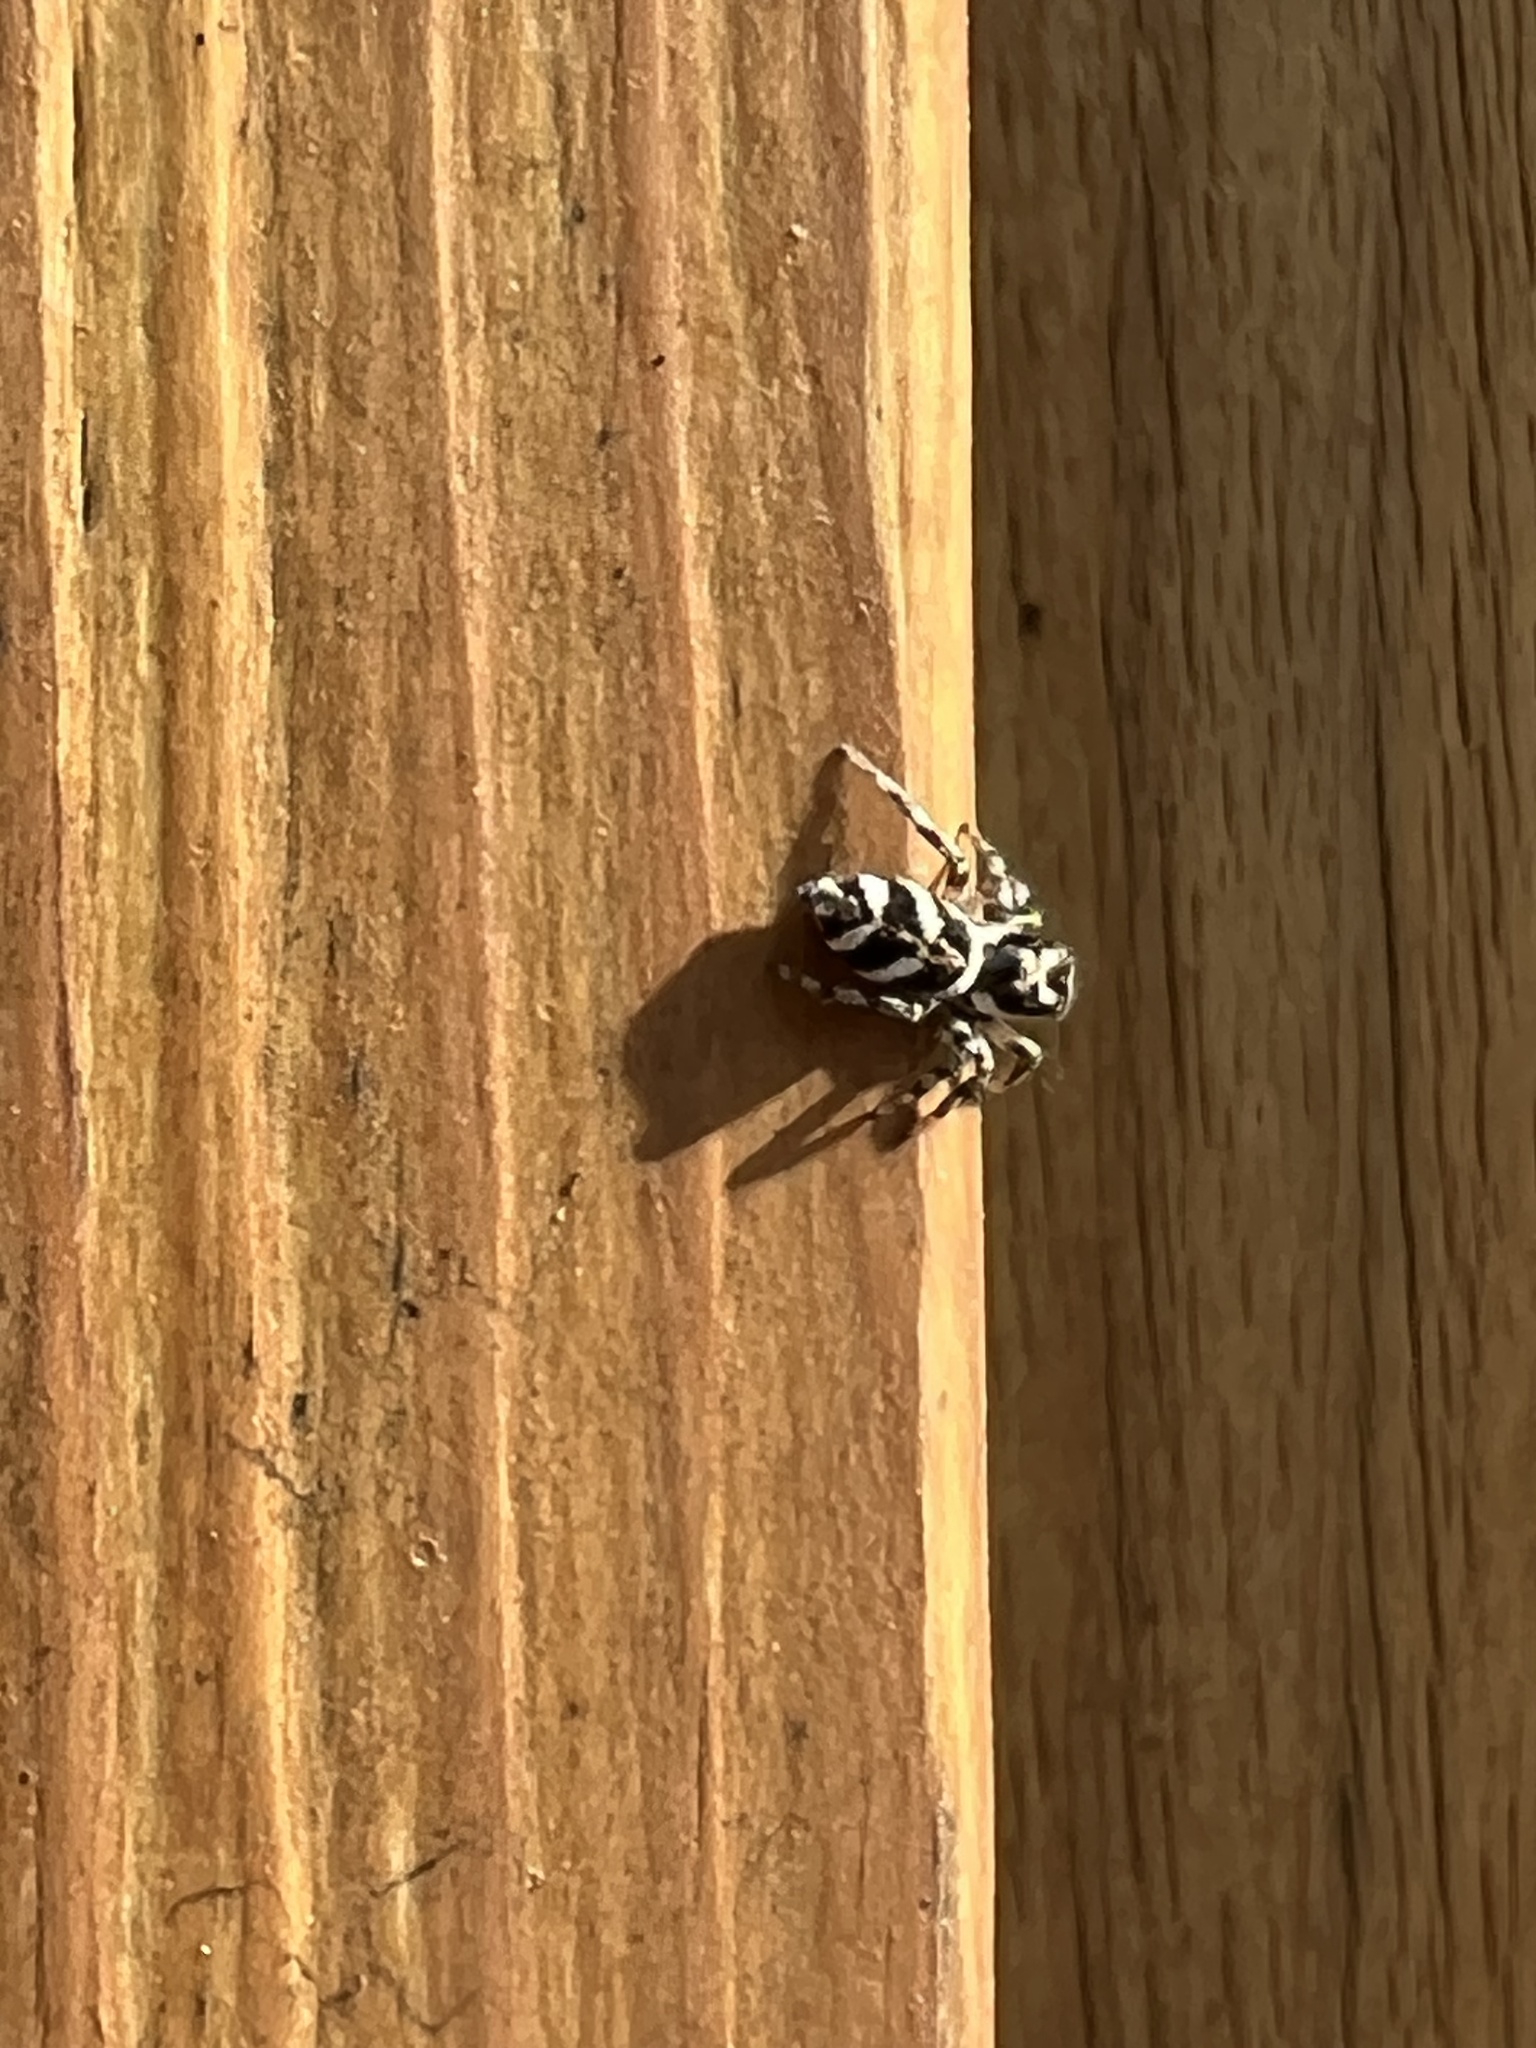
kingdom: Animalia
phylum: Arthropoda
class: Arachnida
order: Araneae
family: Salticidae
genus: Salticus
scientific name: Salticus scenicus
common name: Zebra jumper
